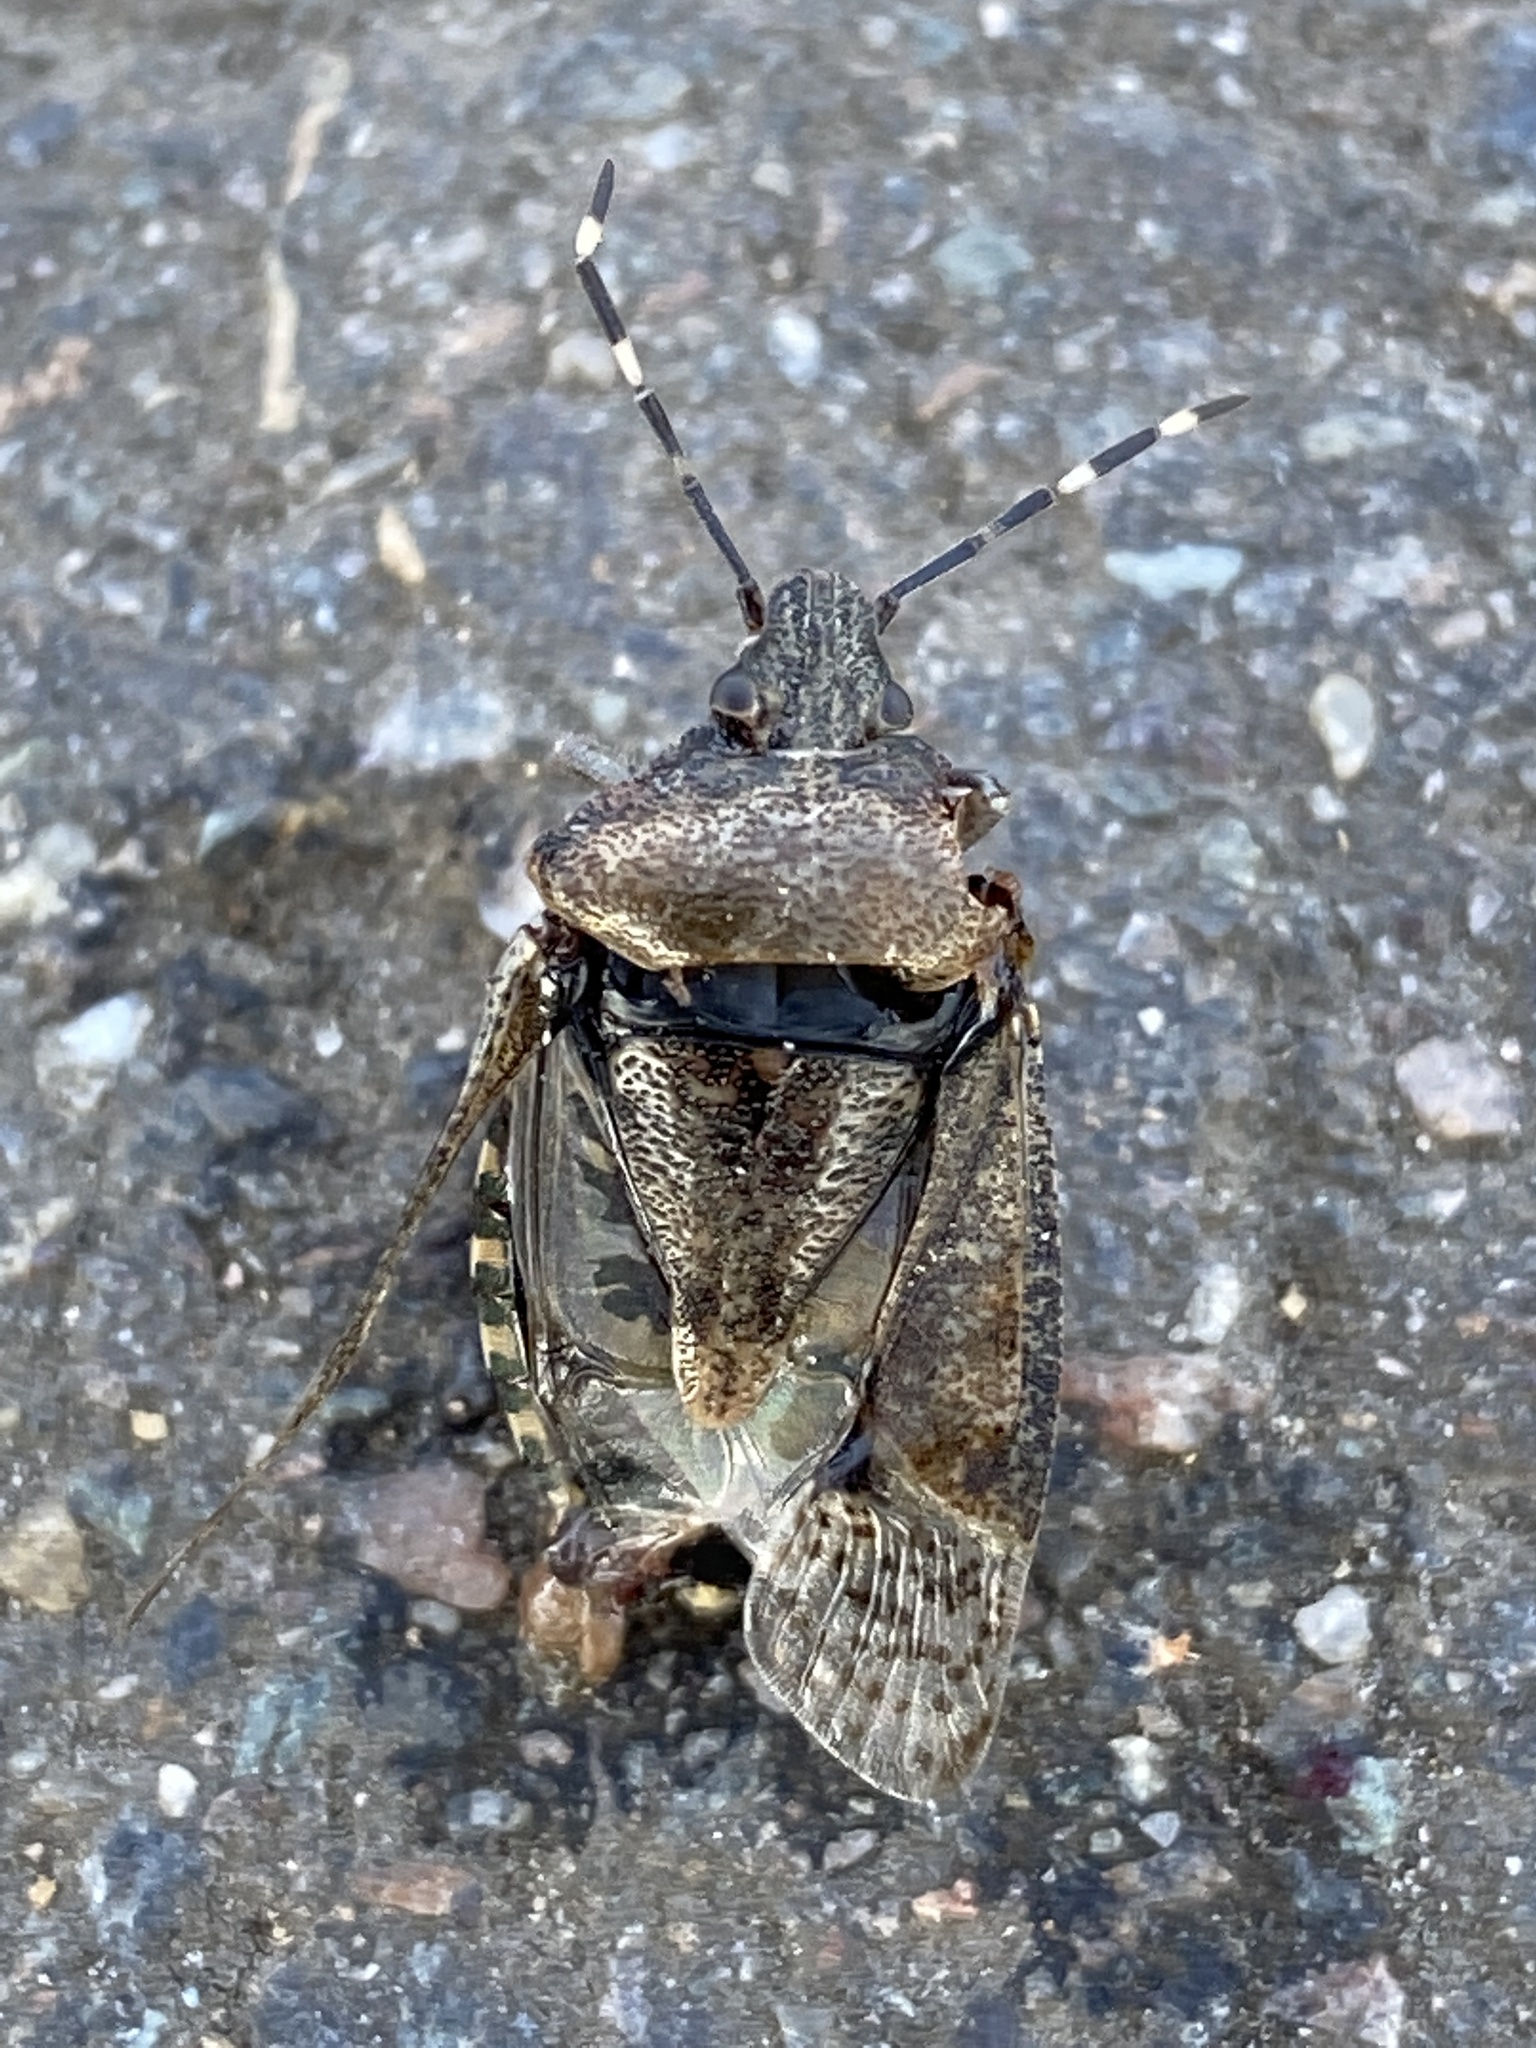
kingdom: Animalia
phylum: Arthropoda
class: Insecta
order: Hemiptera
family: Pentatomidae
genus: Rhaphigaster
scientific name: Rhaphigaster nebulosa
